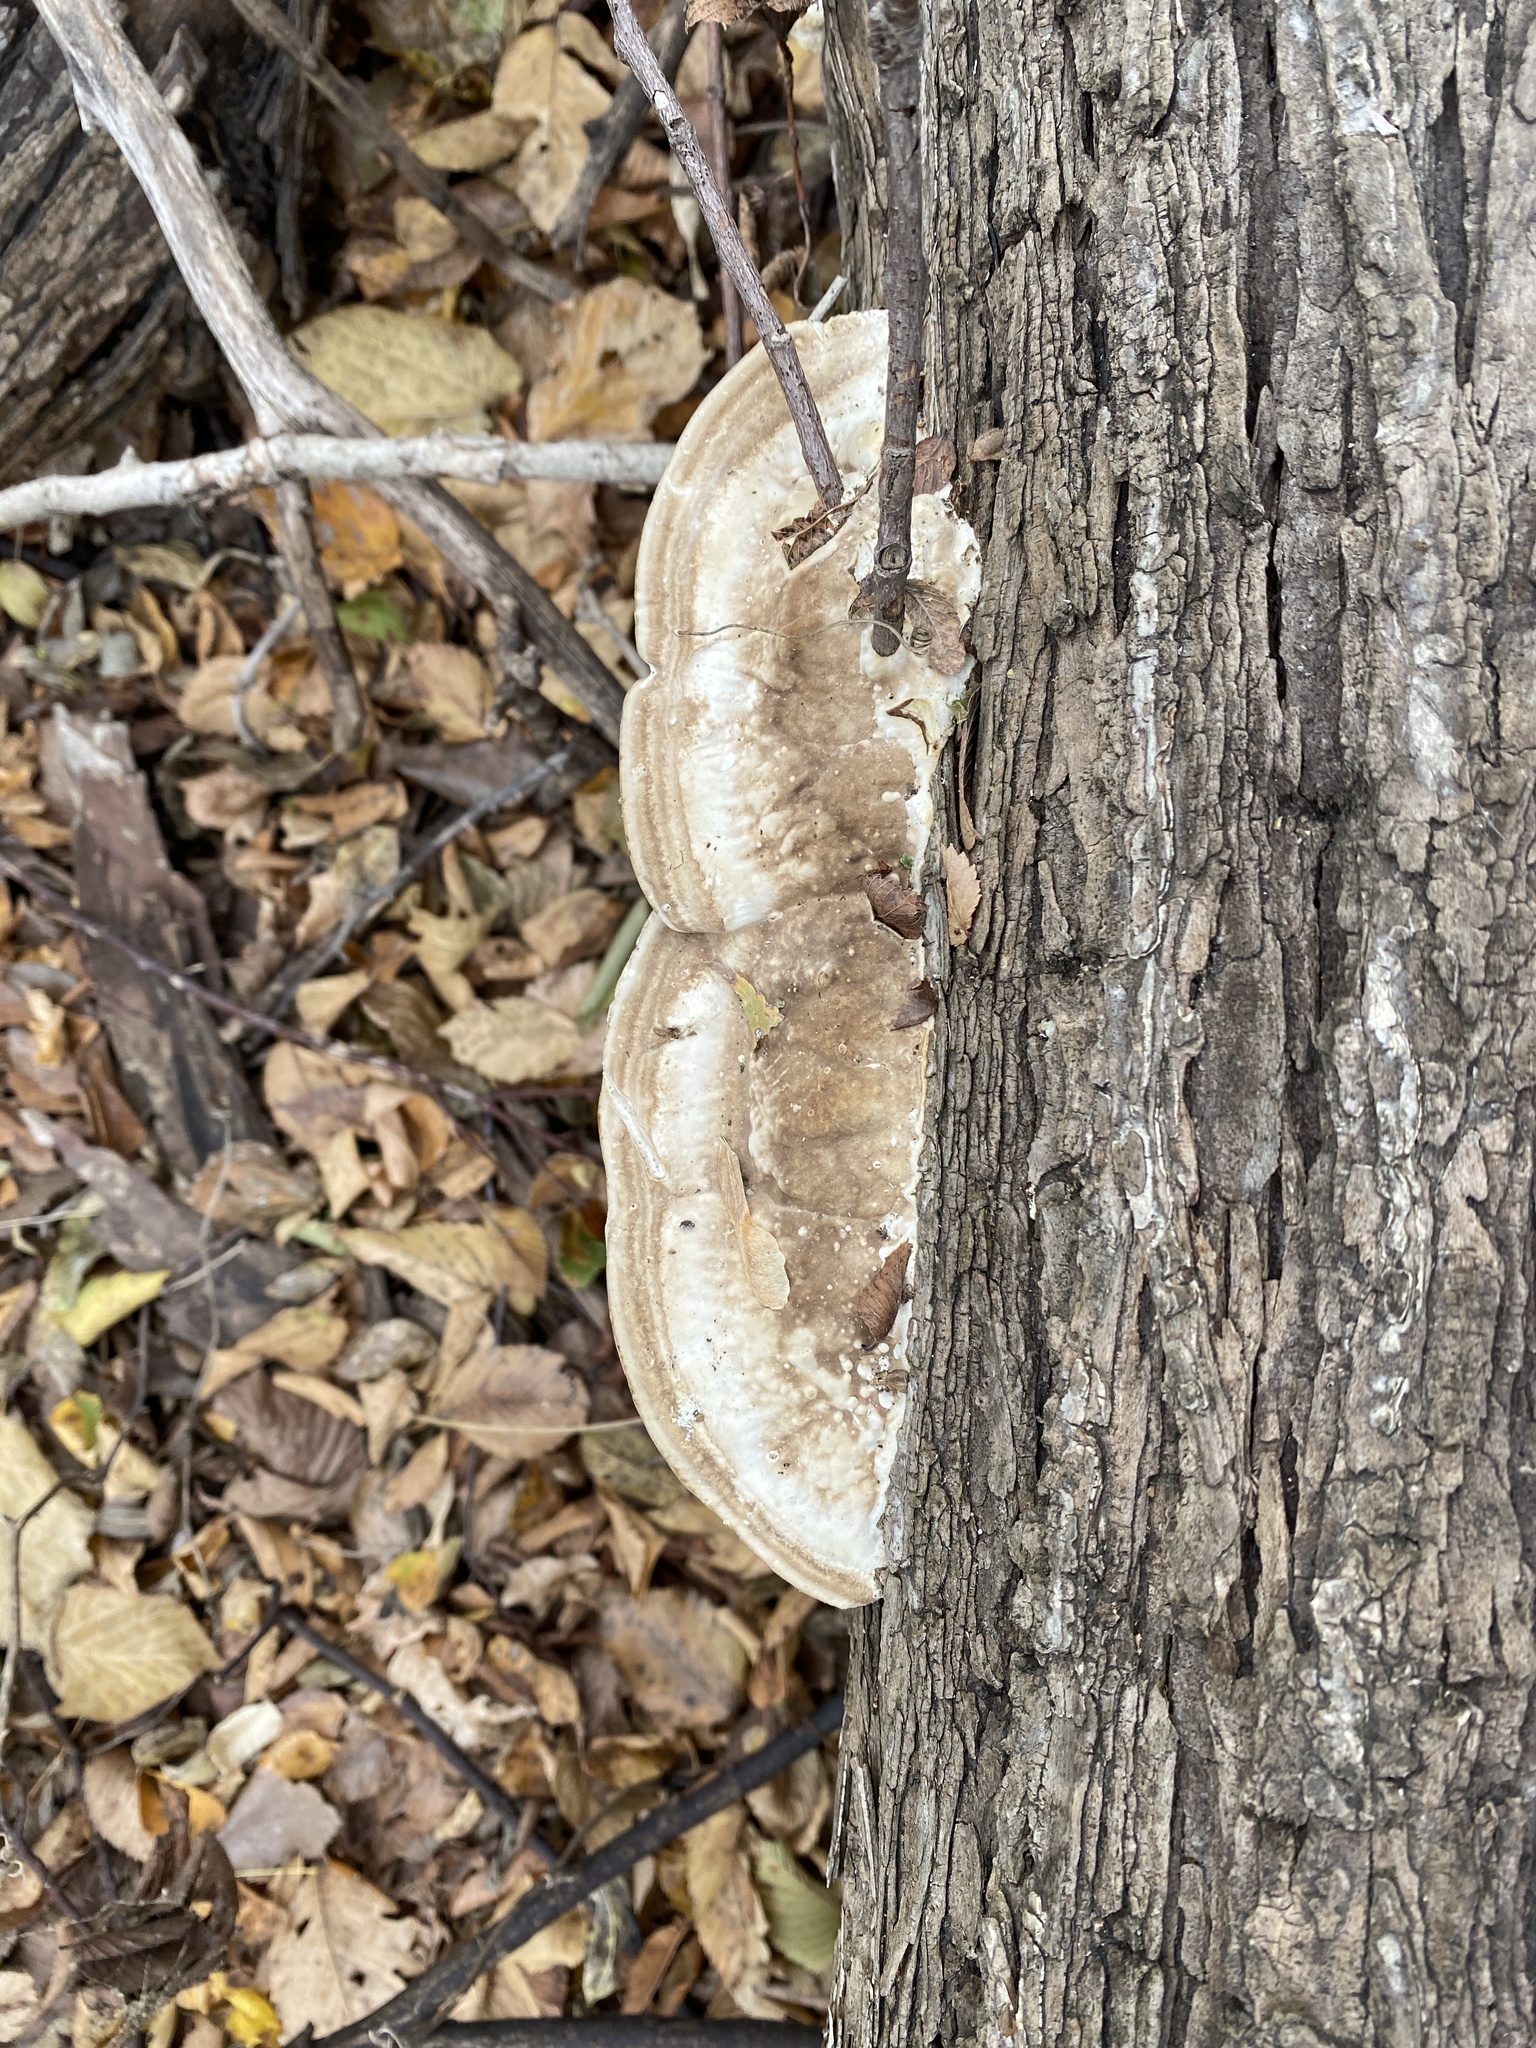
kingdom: Fungi
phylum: Basidiomycota
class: Agaricomycetes
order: Polyporales
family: Polyporaceae
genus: Trametes
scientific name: Trametes lactinea
